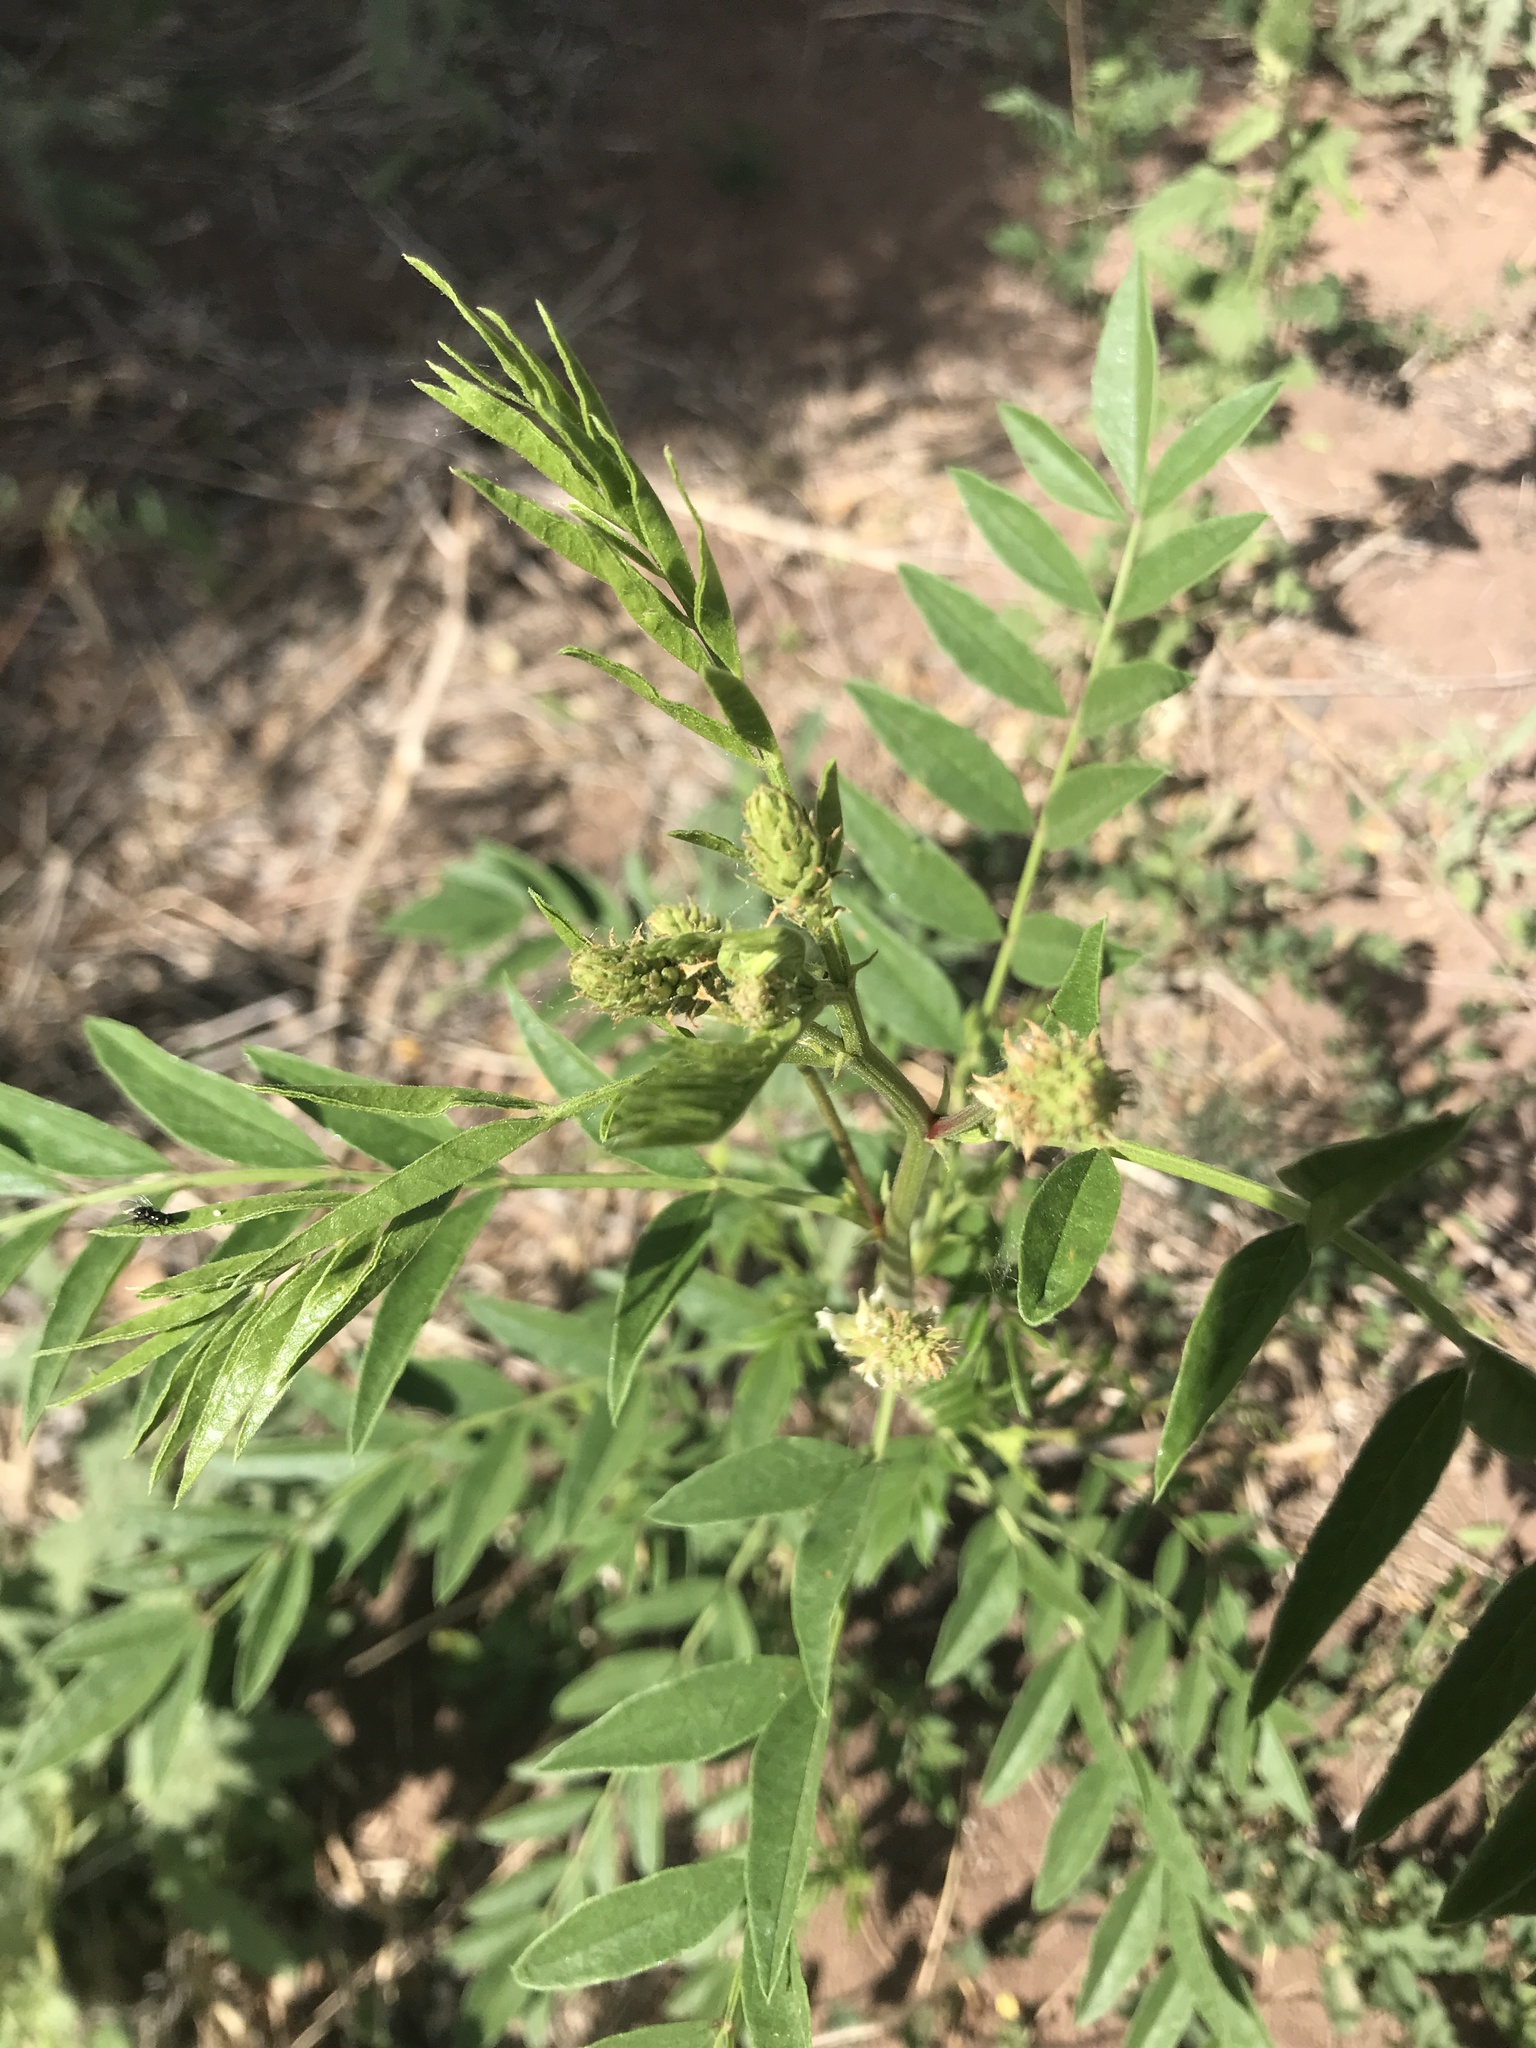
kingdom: Plantae
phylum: Tracheophyta
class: Magnoliopsida
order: Fabales
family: Fabaceae
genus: Glycyrrhiza
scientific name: Glycyrrhiza lepidota
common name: American liquorice
